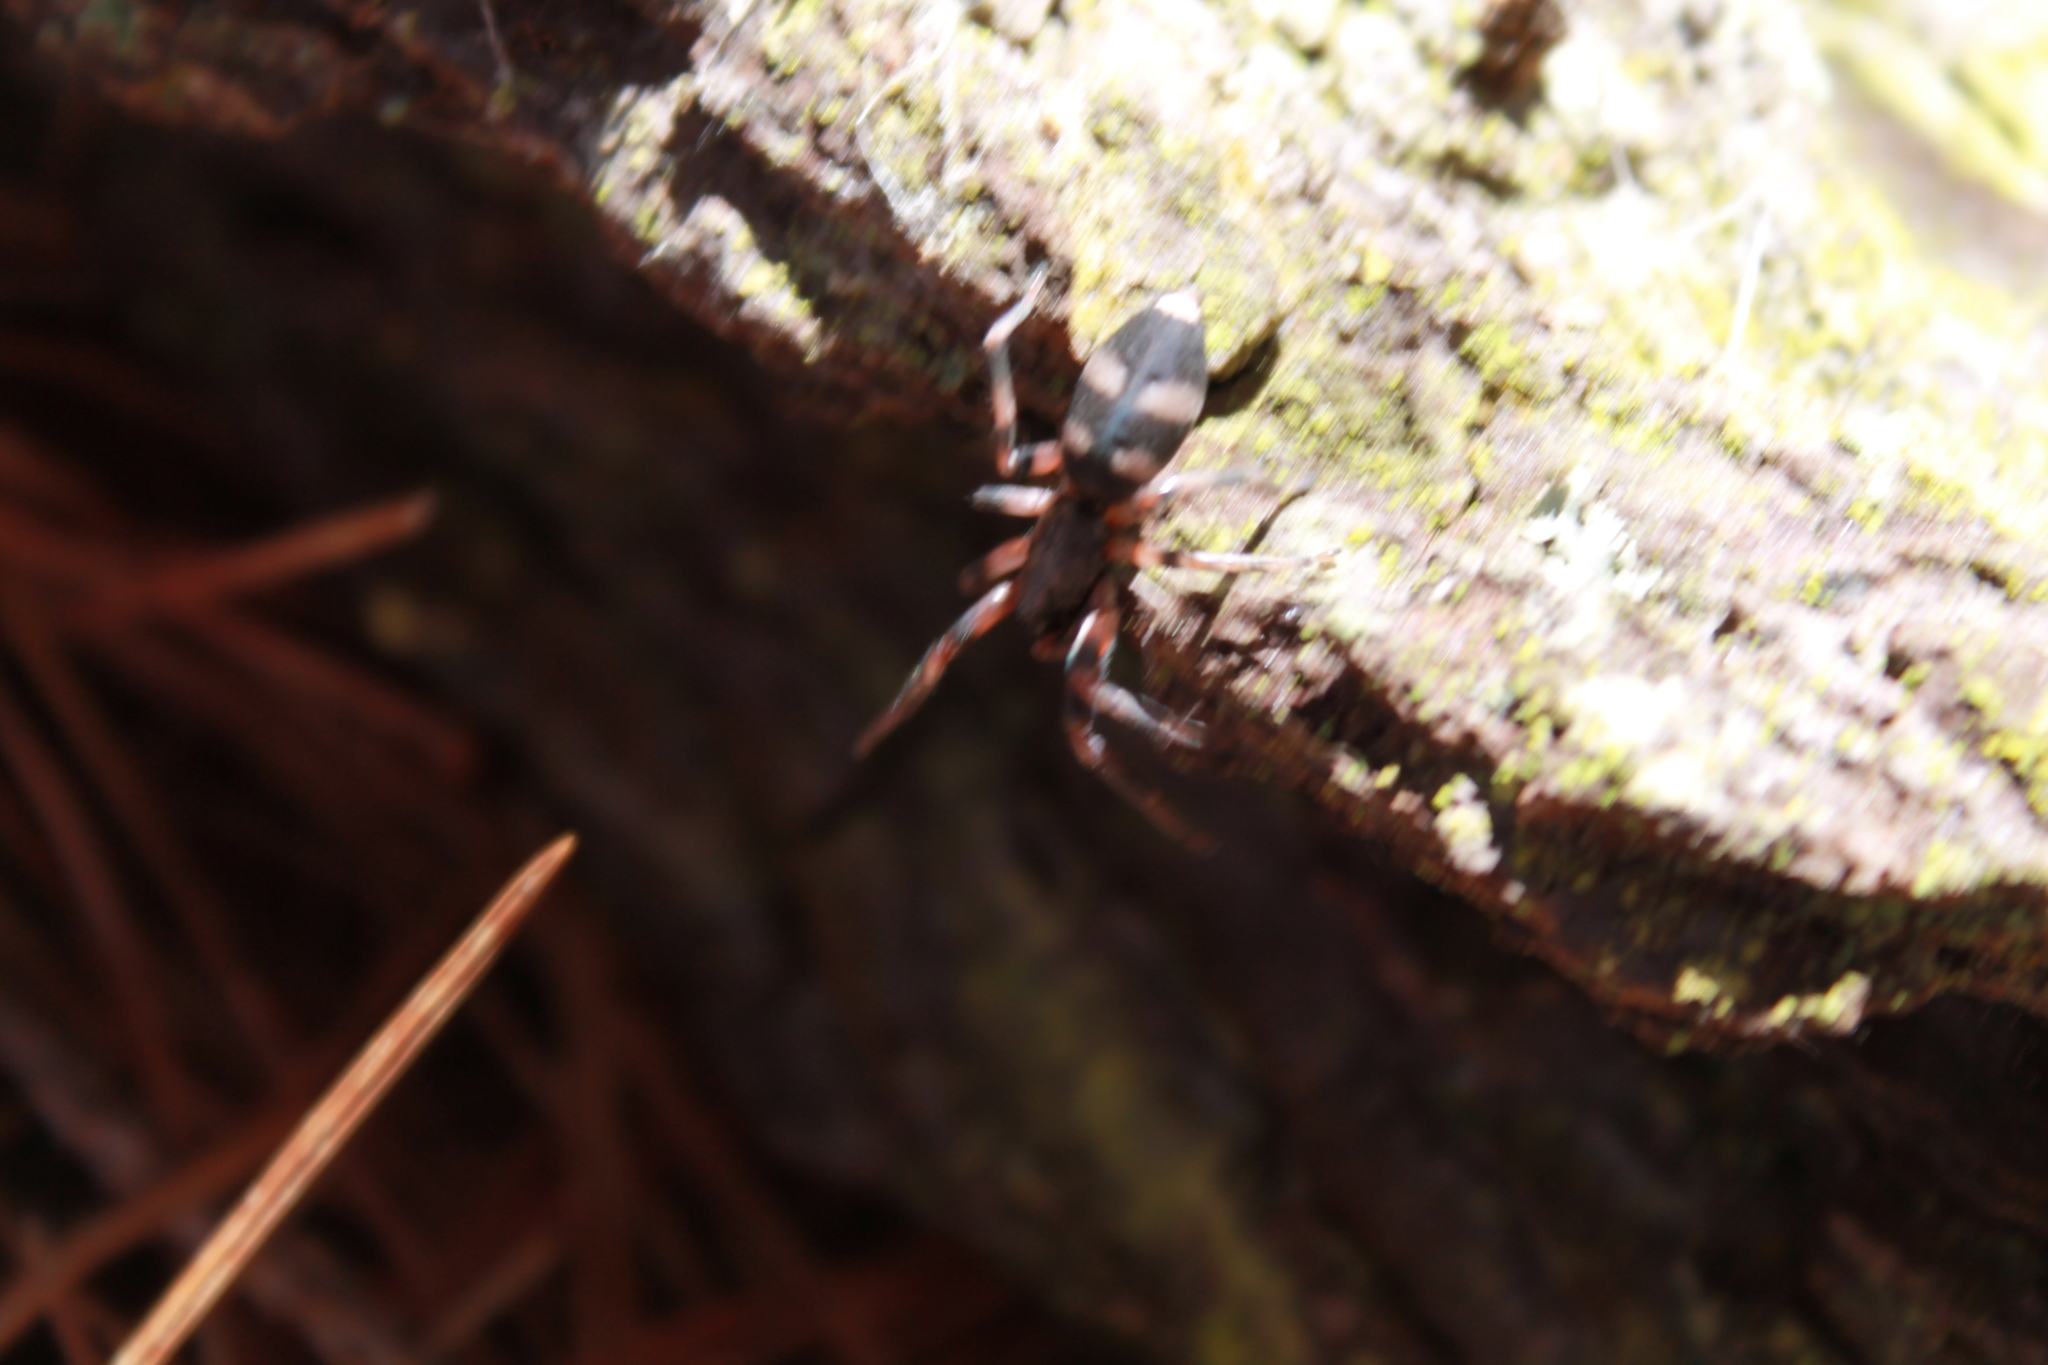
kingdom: Animalia
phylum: Arthropoda
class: Arachnida
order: Araneae
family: Lamponidae
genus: Lampona
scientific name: Lampona murina
